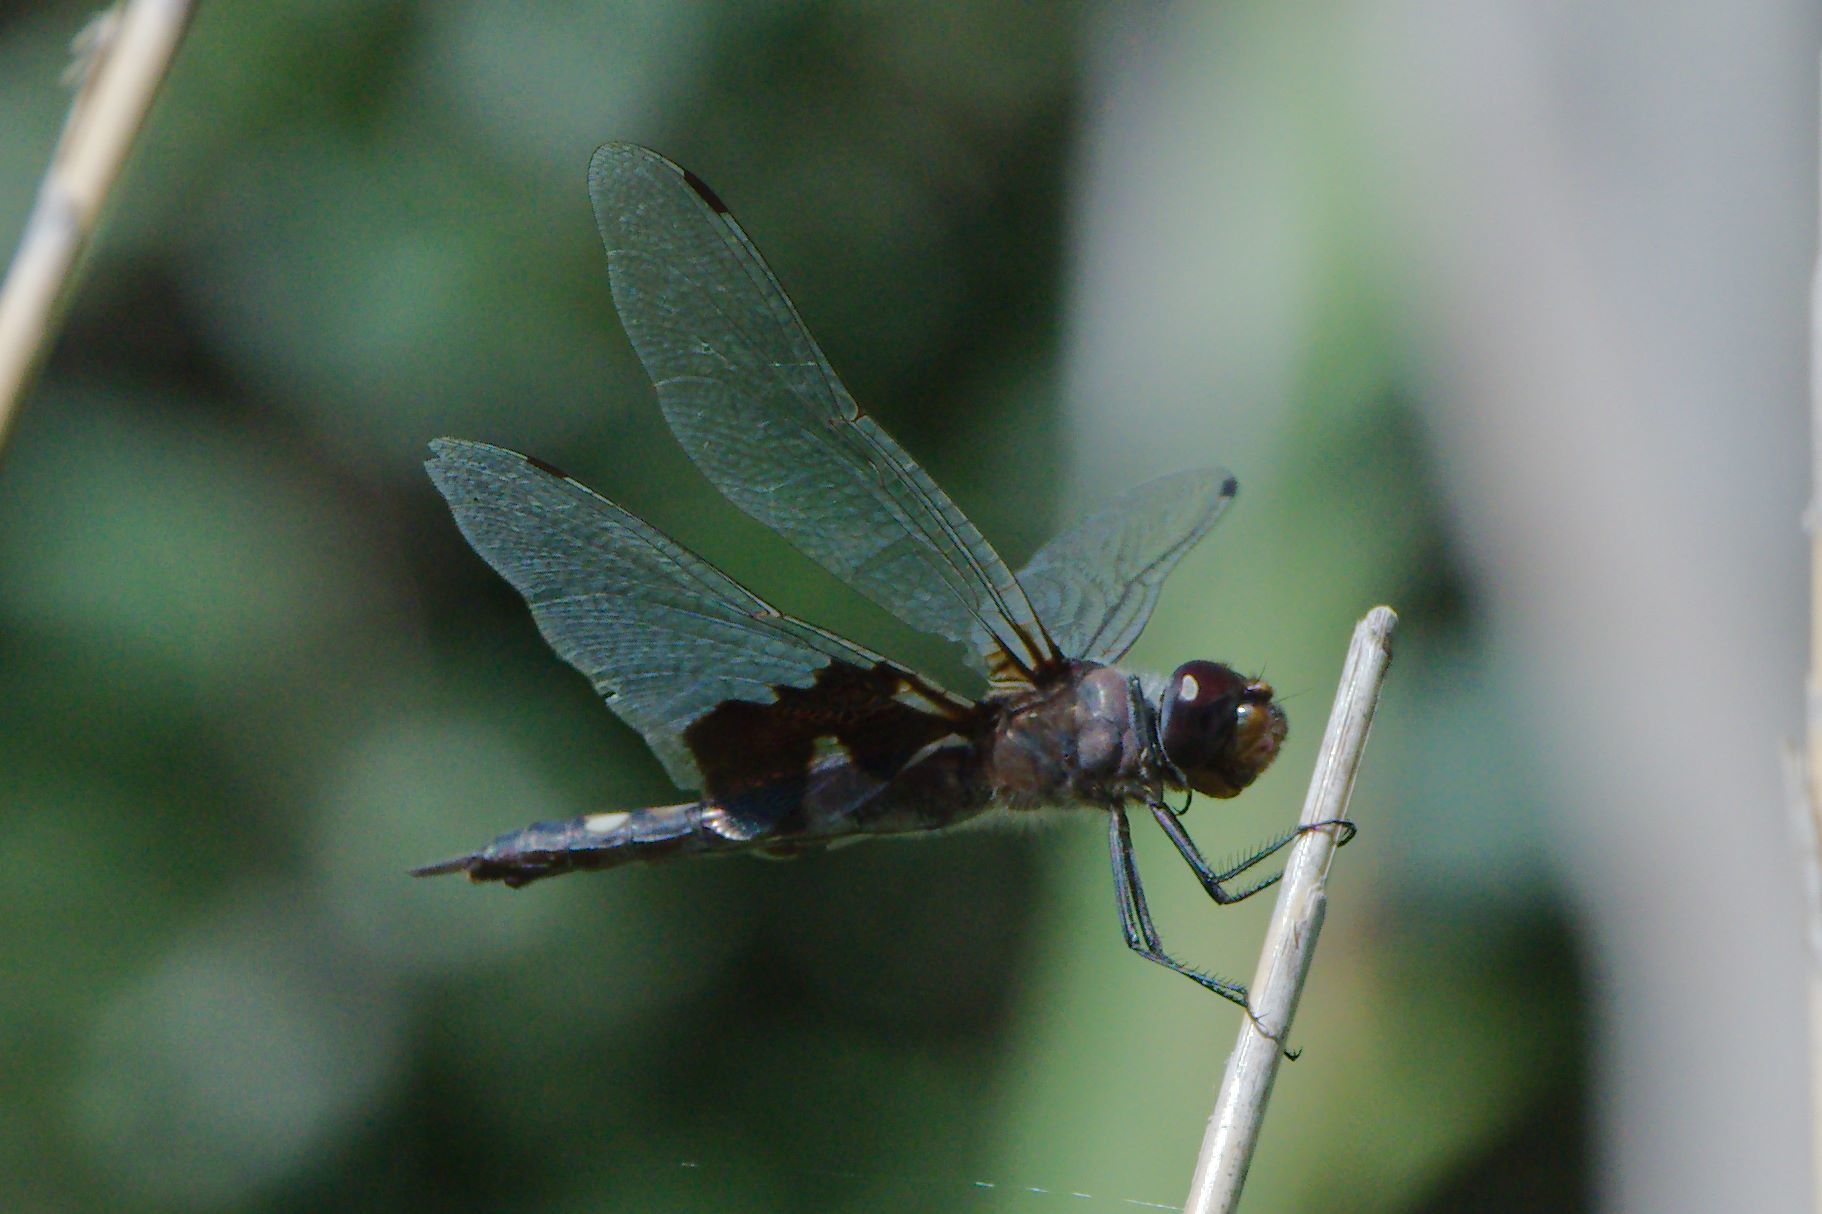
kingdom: Animalia
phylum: Arthropoda
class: Insecta
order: Odonata
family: Libellulidae
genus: Tramea
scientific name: Tramea lacerata
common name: Black saddlebags
